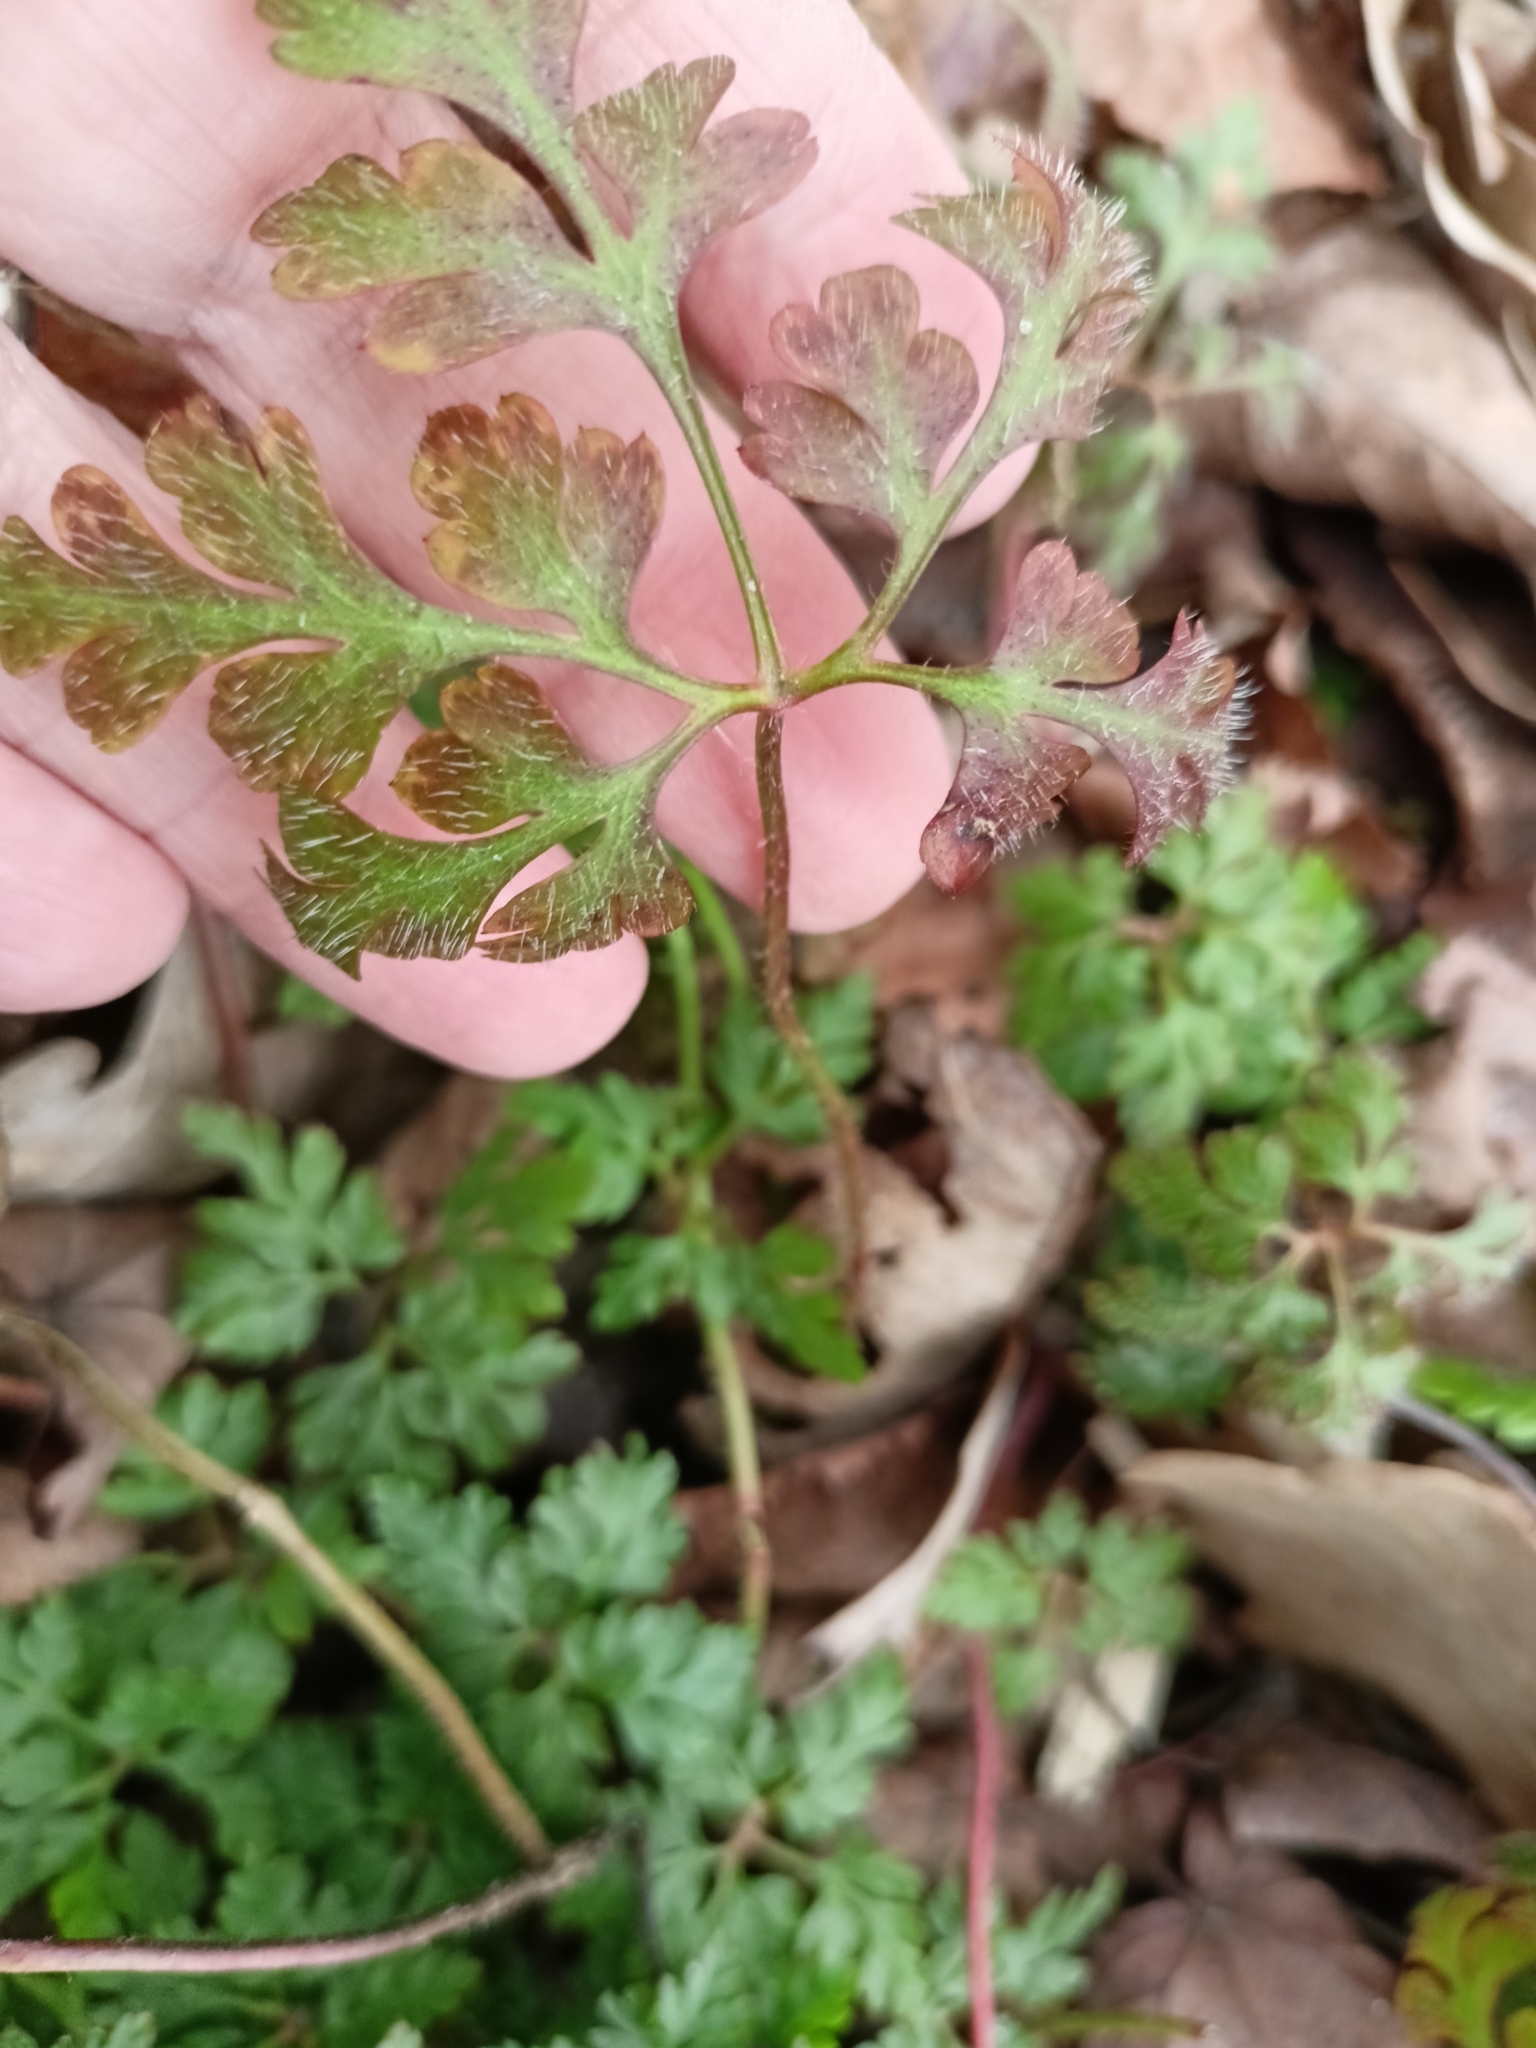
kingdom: Plantae
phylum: Tracheophyta
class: Magnoliopsida
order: Geraniales
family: Geraniaceae
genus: Geranium
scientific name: Geranium robertianum
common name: Herb-robert
